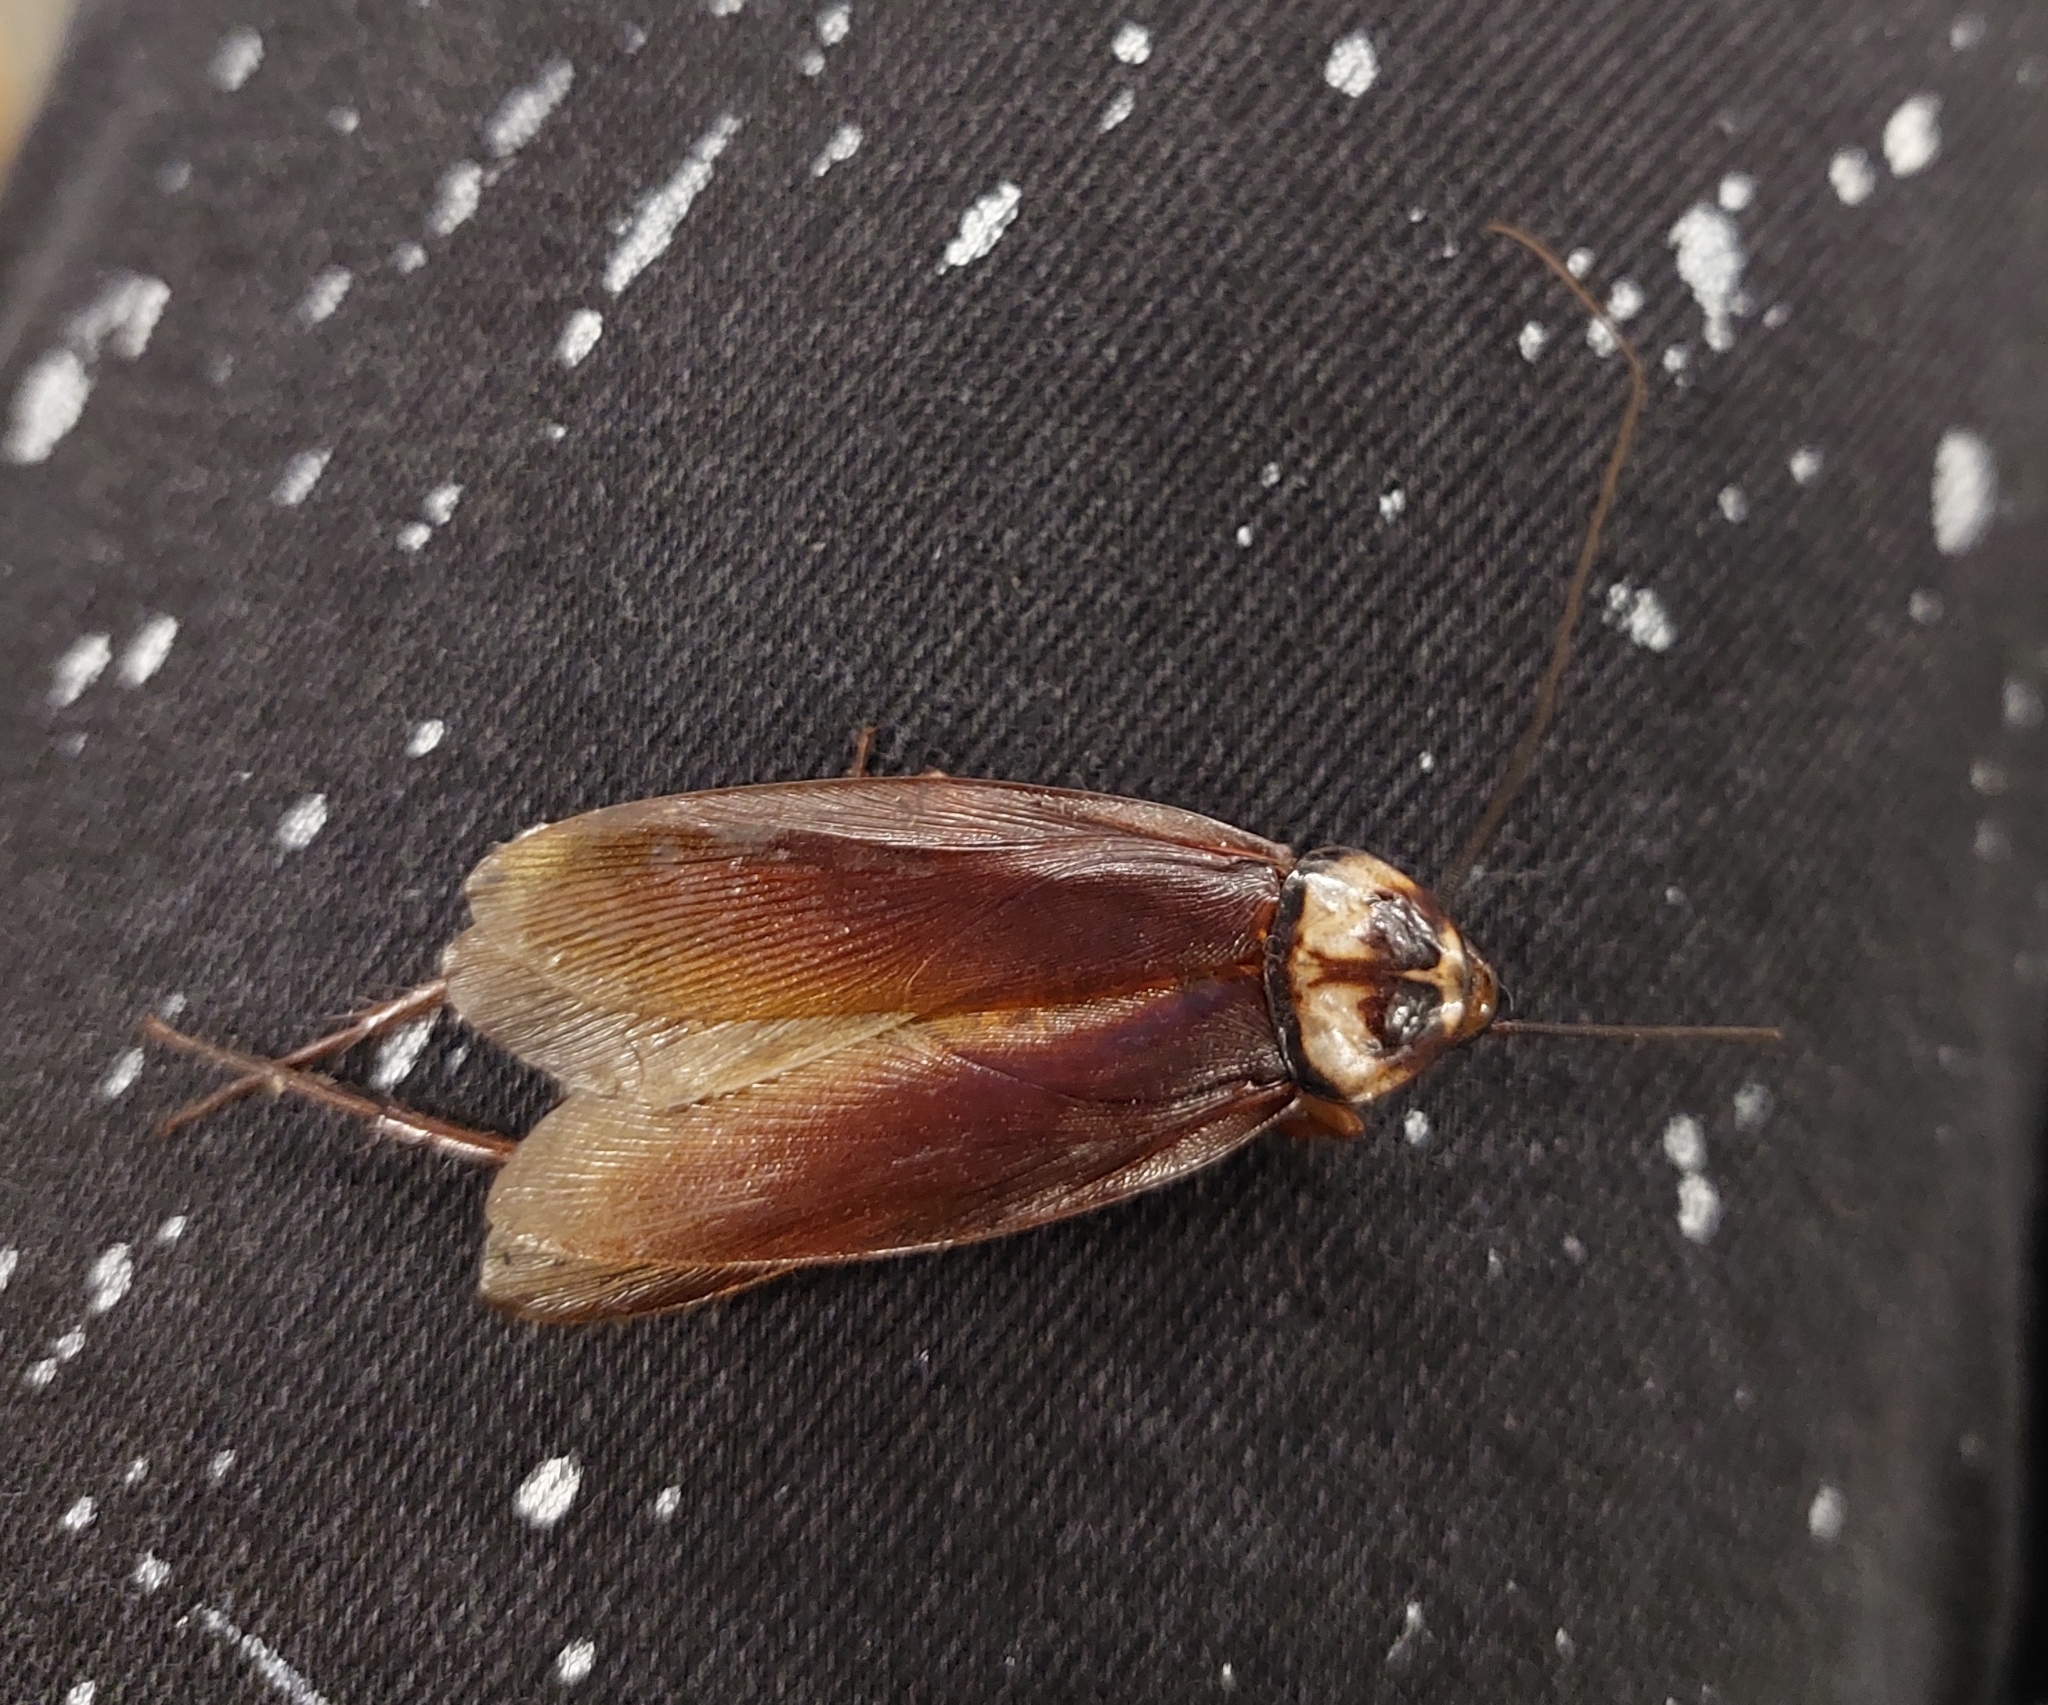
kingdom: Animalia
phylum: Arthropoda
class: Insecta
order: Blattodea
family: Blattidae
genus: Periplaneta
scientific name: Periplaneta americana
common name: American cockroach
